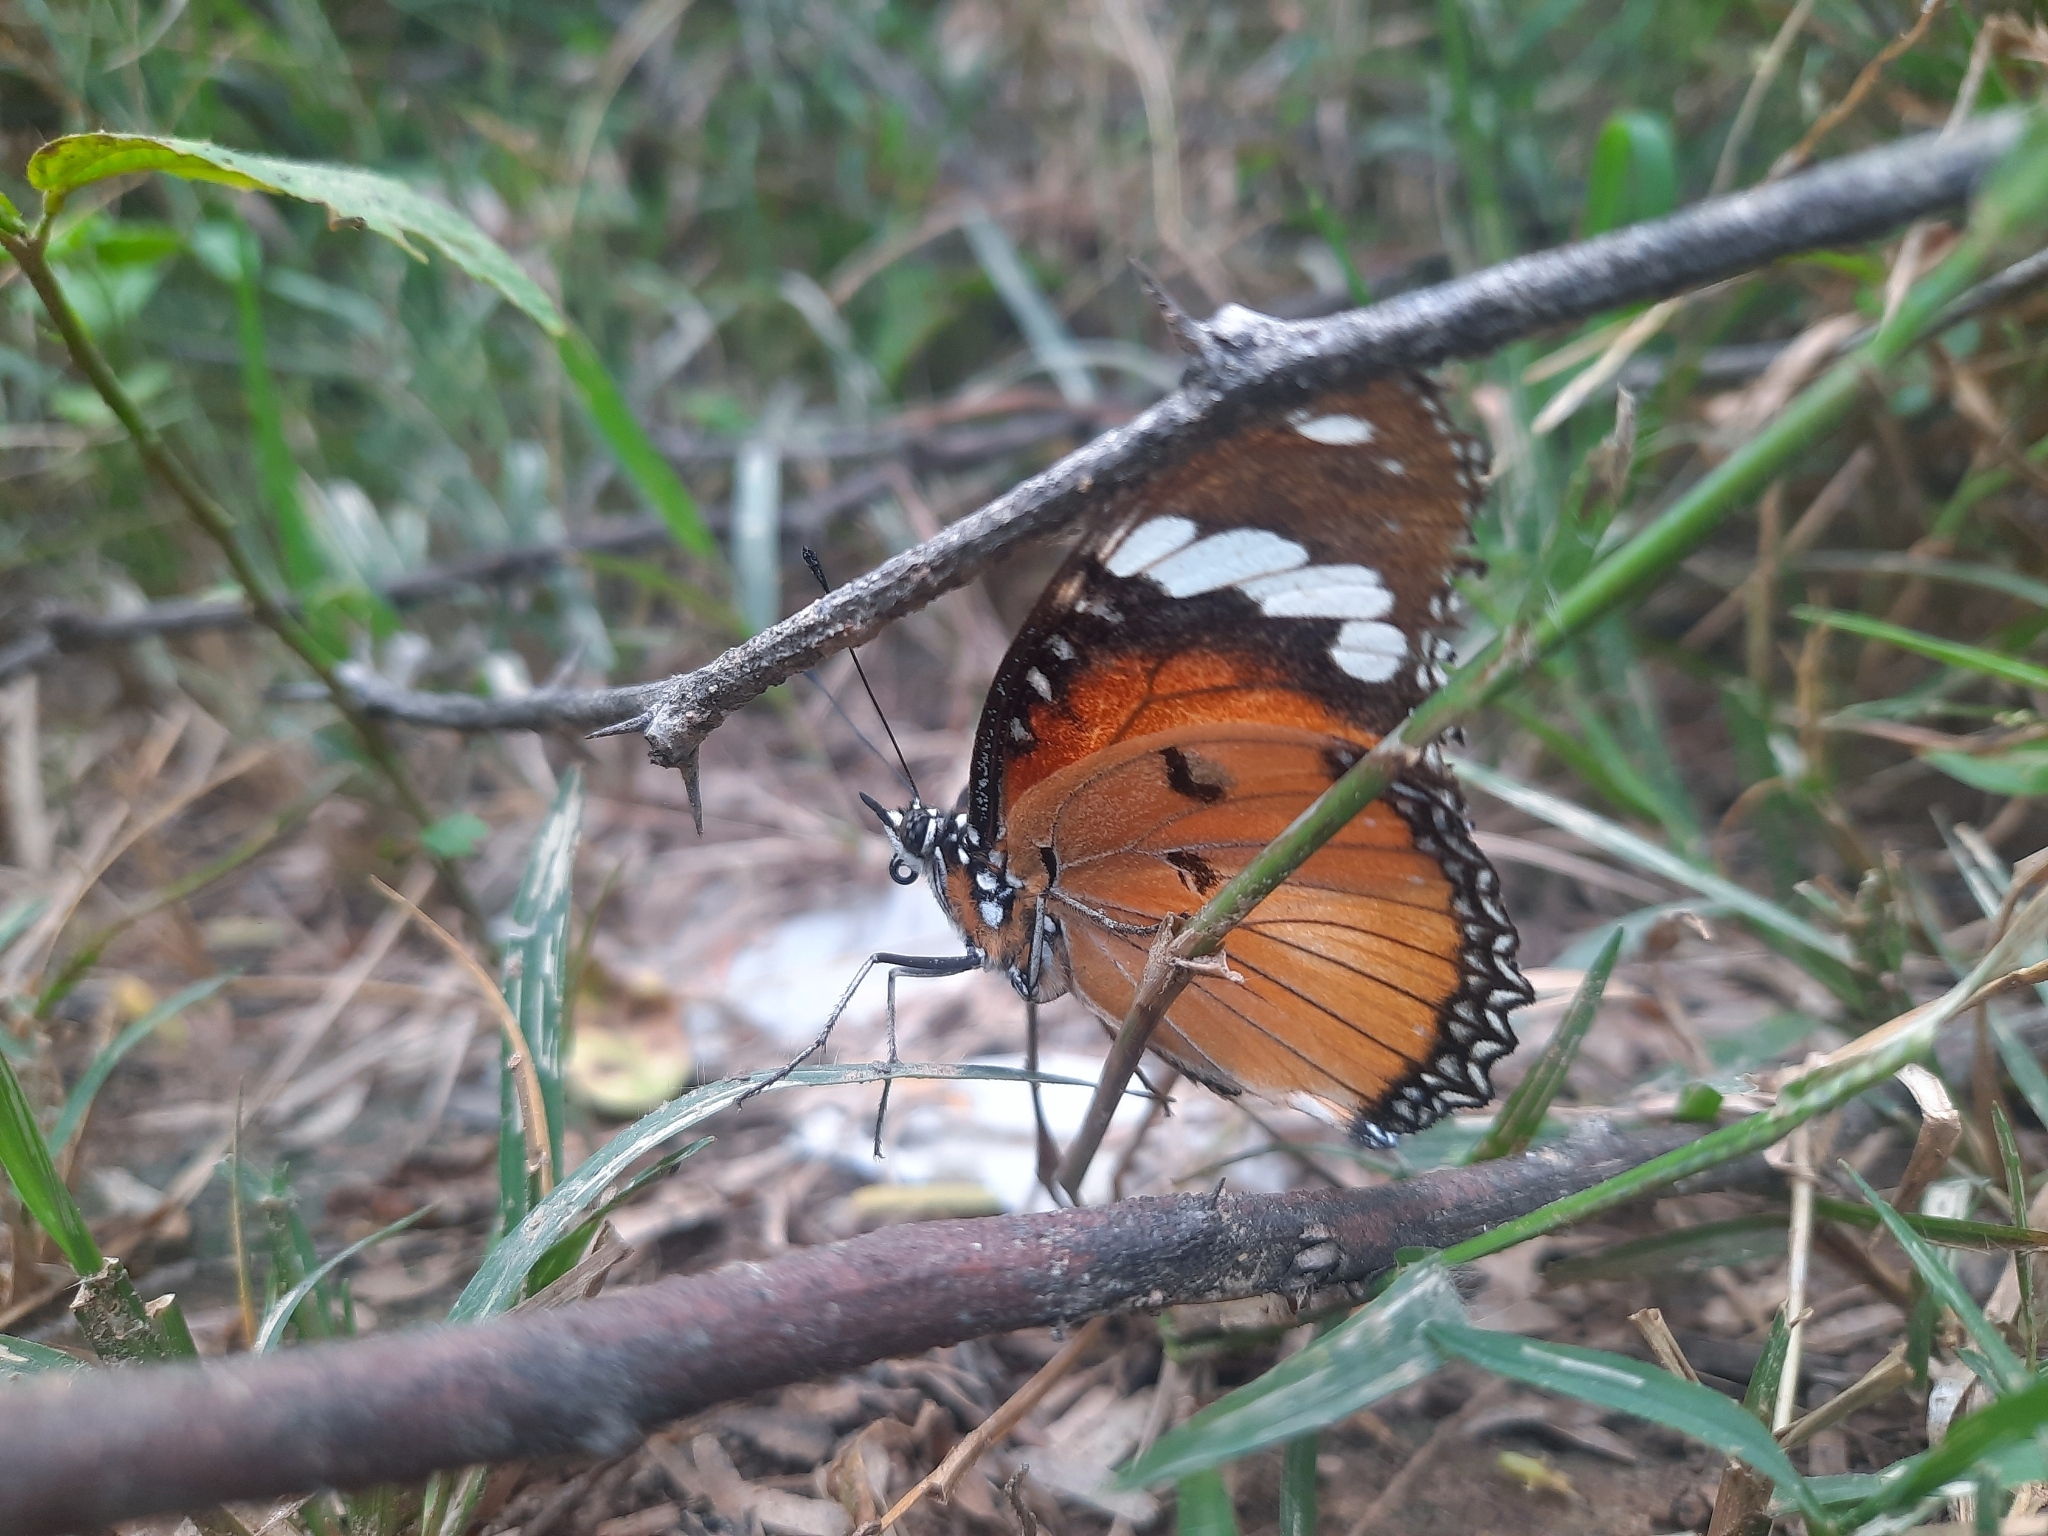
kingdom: Animalia
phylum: Arthropoda
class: Insecta
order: Lepidoptera
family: Nymphalidae
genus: Hypolimnas
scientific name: Hypolimnas misippus
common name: False plain tiger
